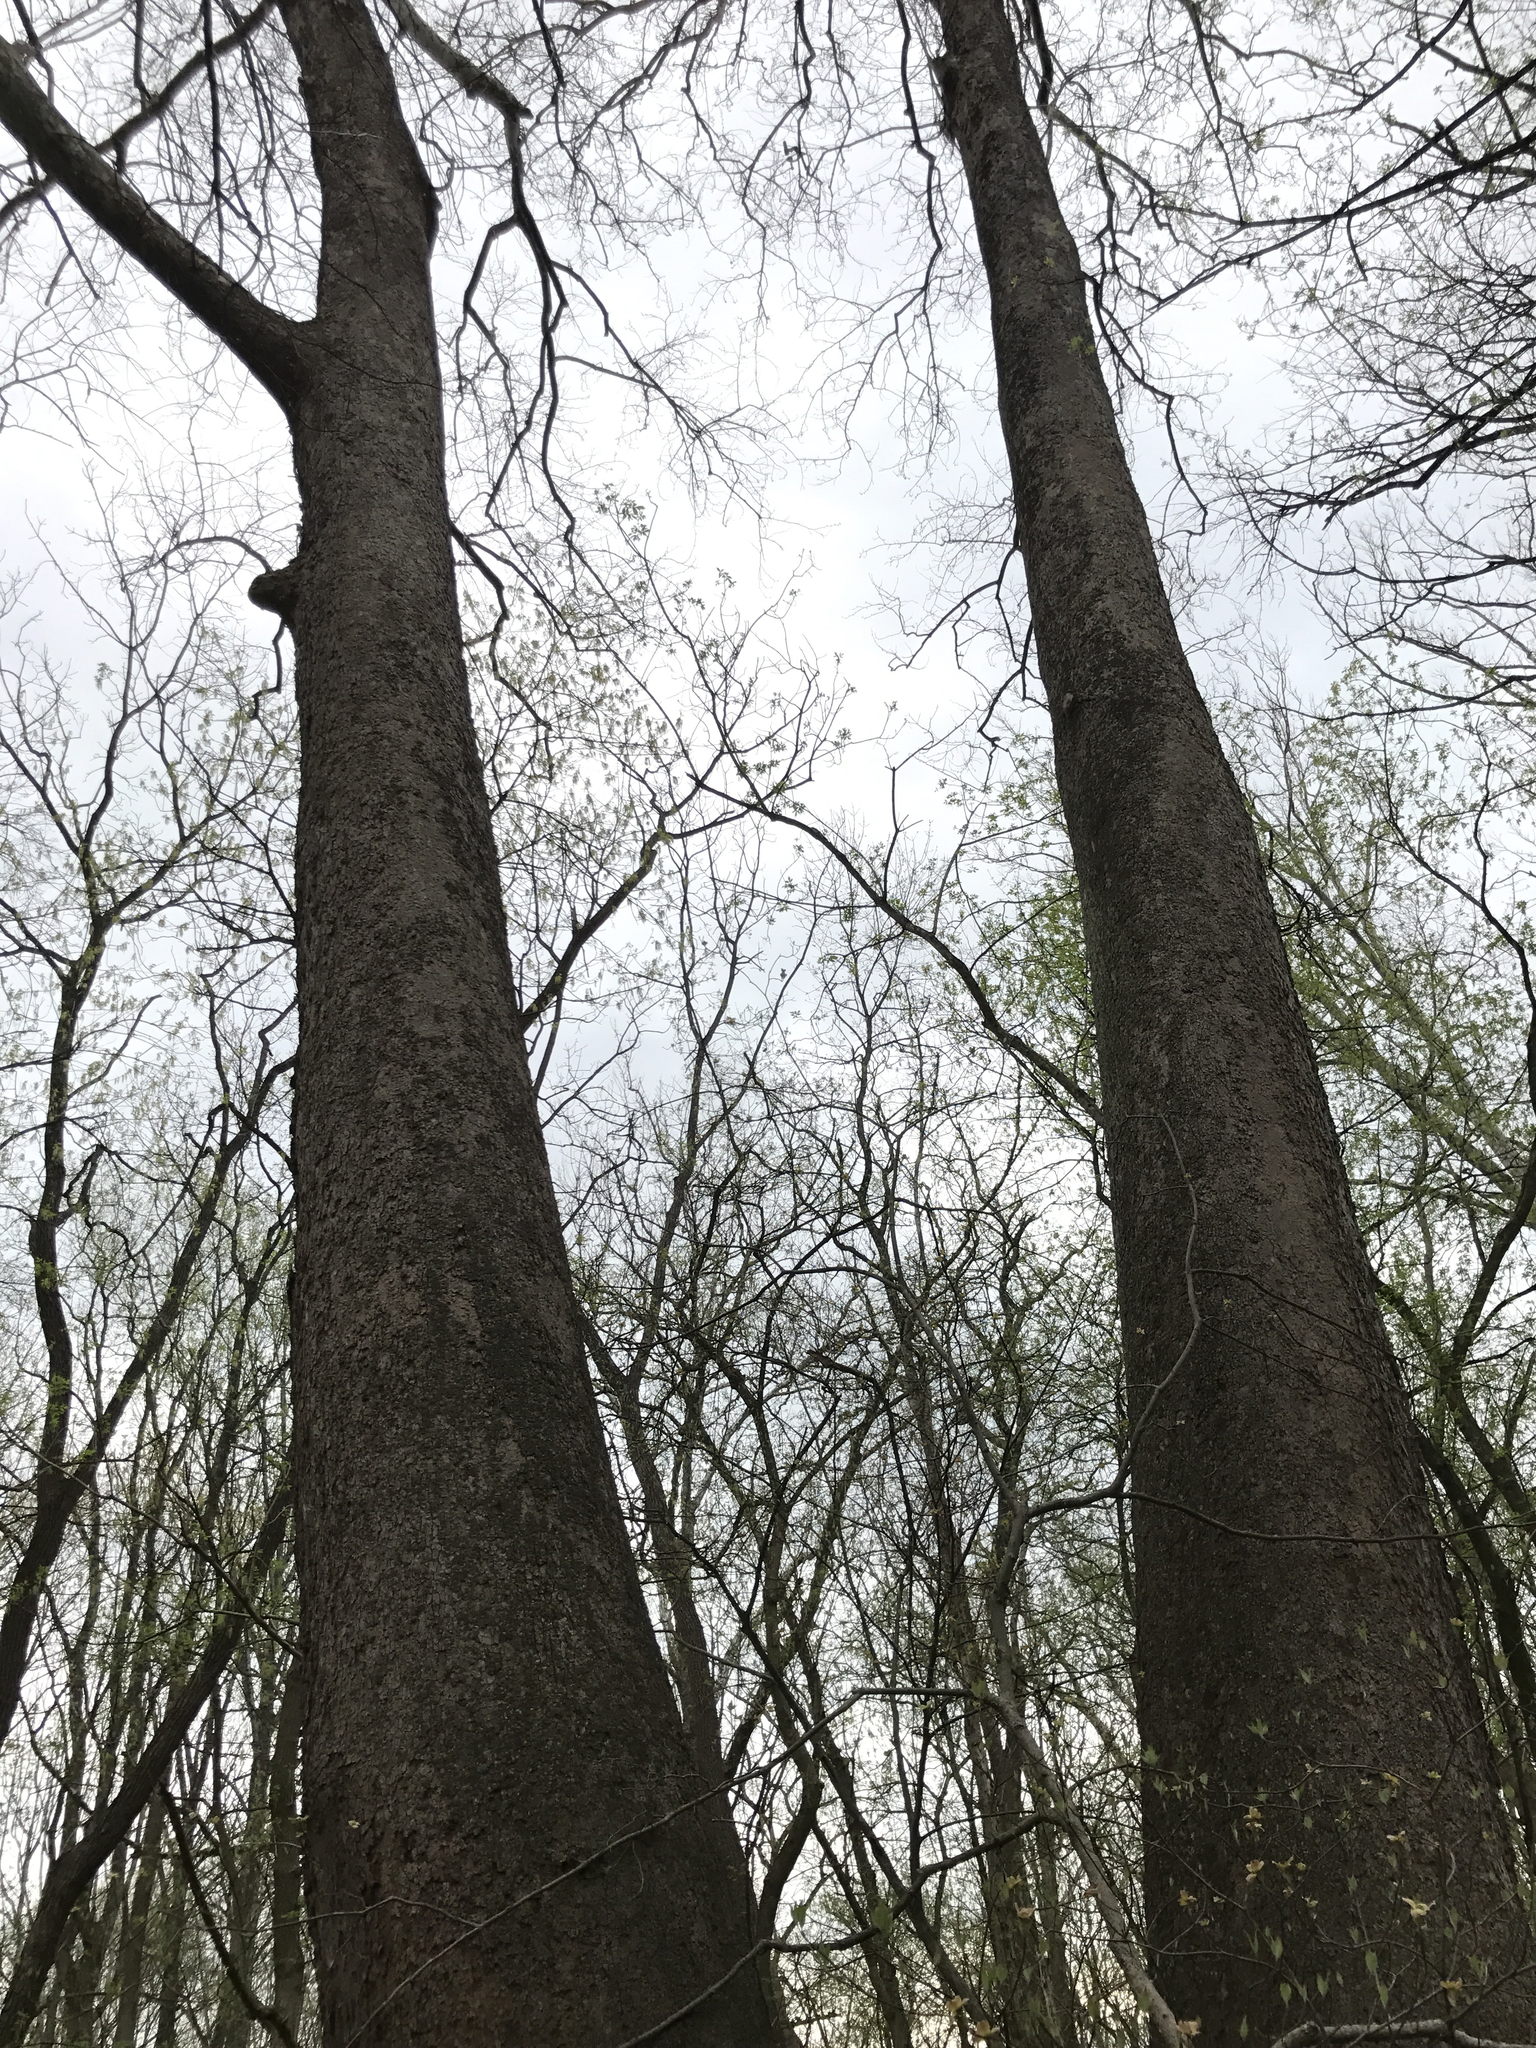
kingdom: Plantae
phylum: Tracheophyta
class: Magnoliopsida
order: Proteales
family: Platanaceae
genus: Platanus
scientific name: Platanus occidentalis
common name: American sycamore
